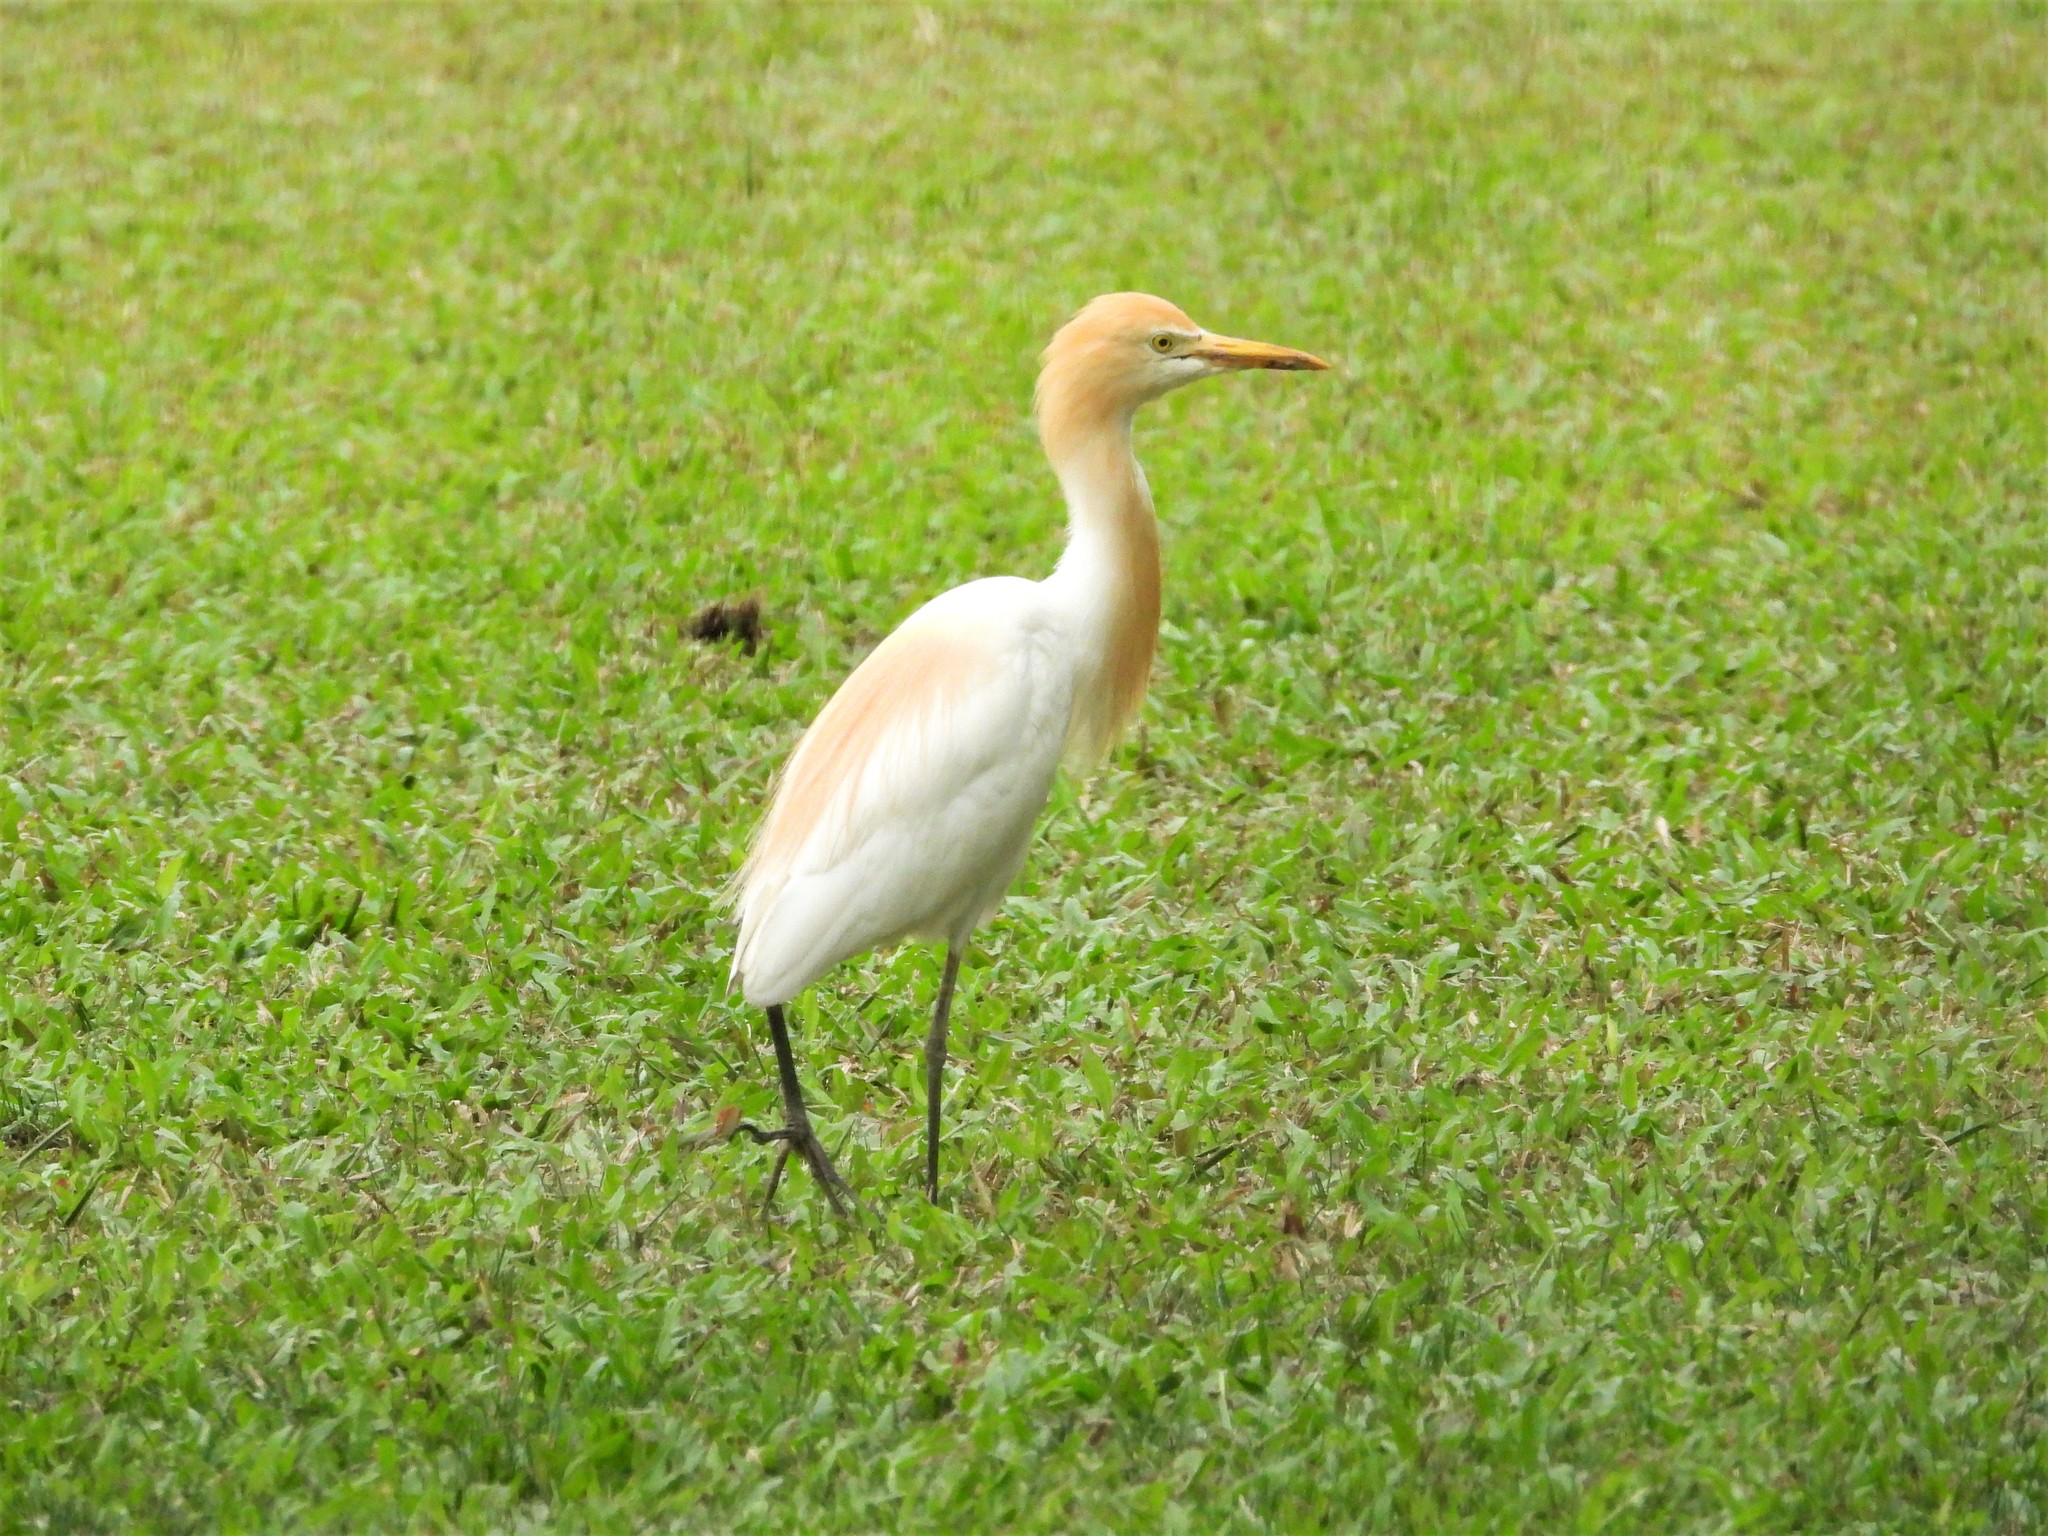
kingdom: Animalia
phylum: Chordata
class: Aves
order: Pelecaniformes
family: Ardeidae
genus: Bubulcus
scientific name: Bubulcus coromandus
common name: Eastern cattle egret
